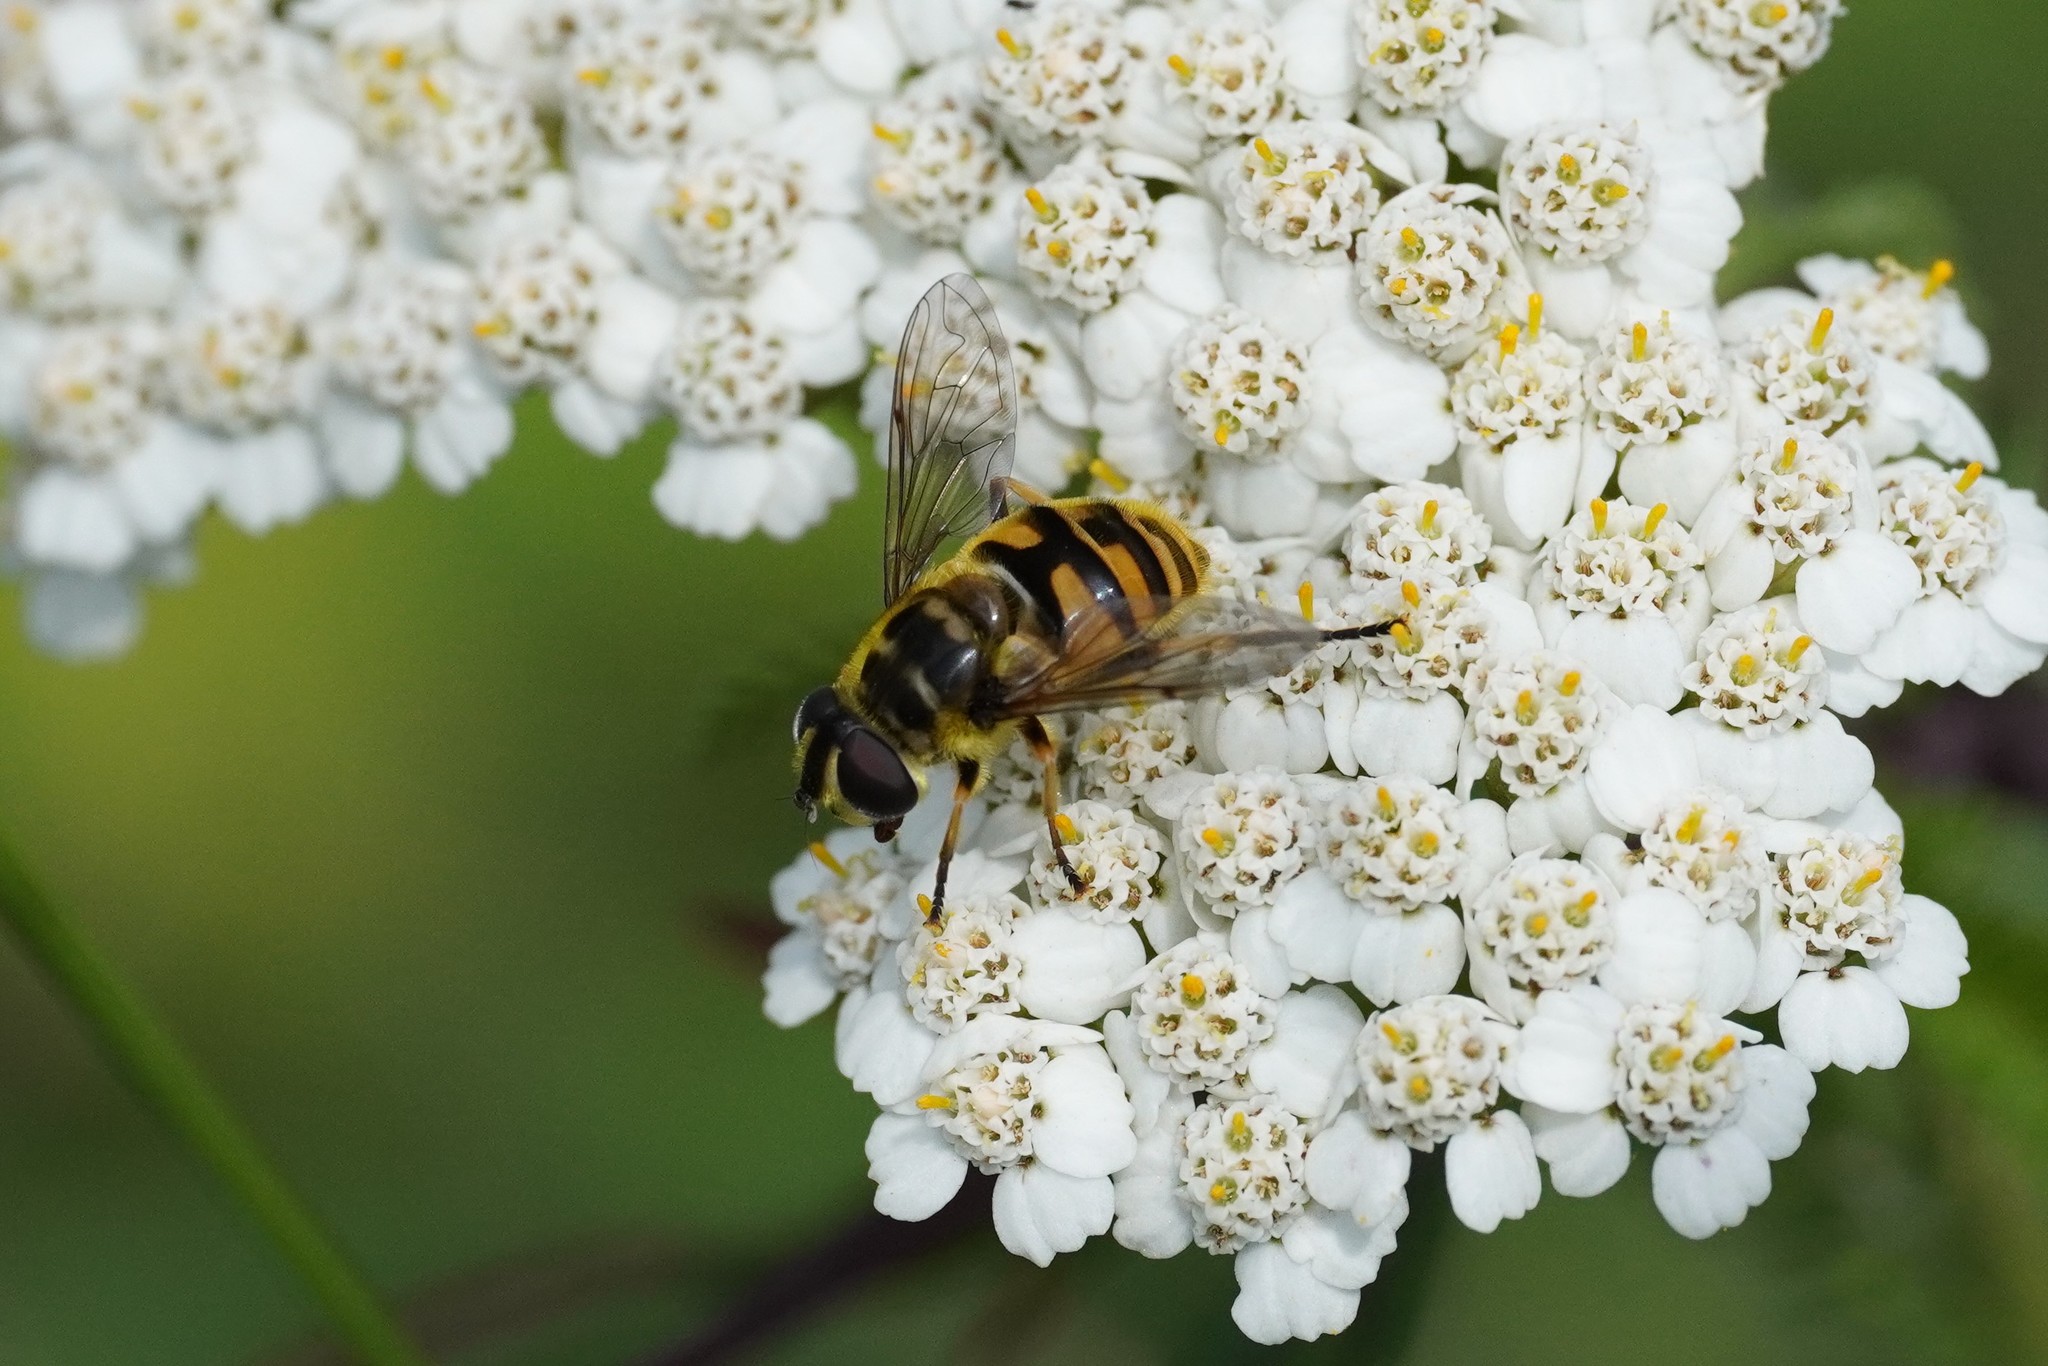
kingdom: Animalia
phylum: Arthropoda
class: Insecta
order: Diptera
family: Syrphidae
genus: Myathropa
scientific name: Myathropa florea
